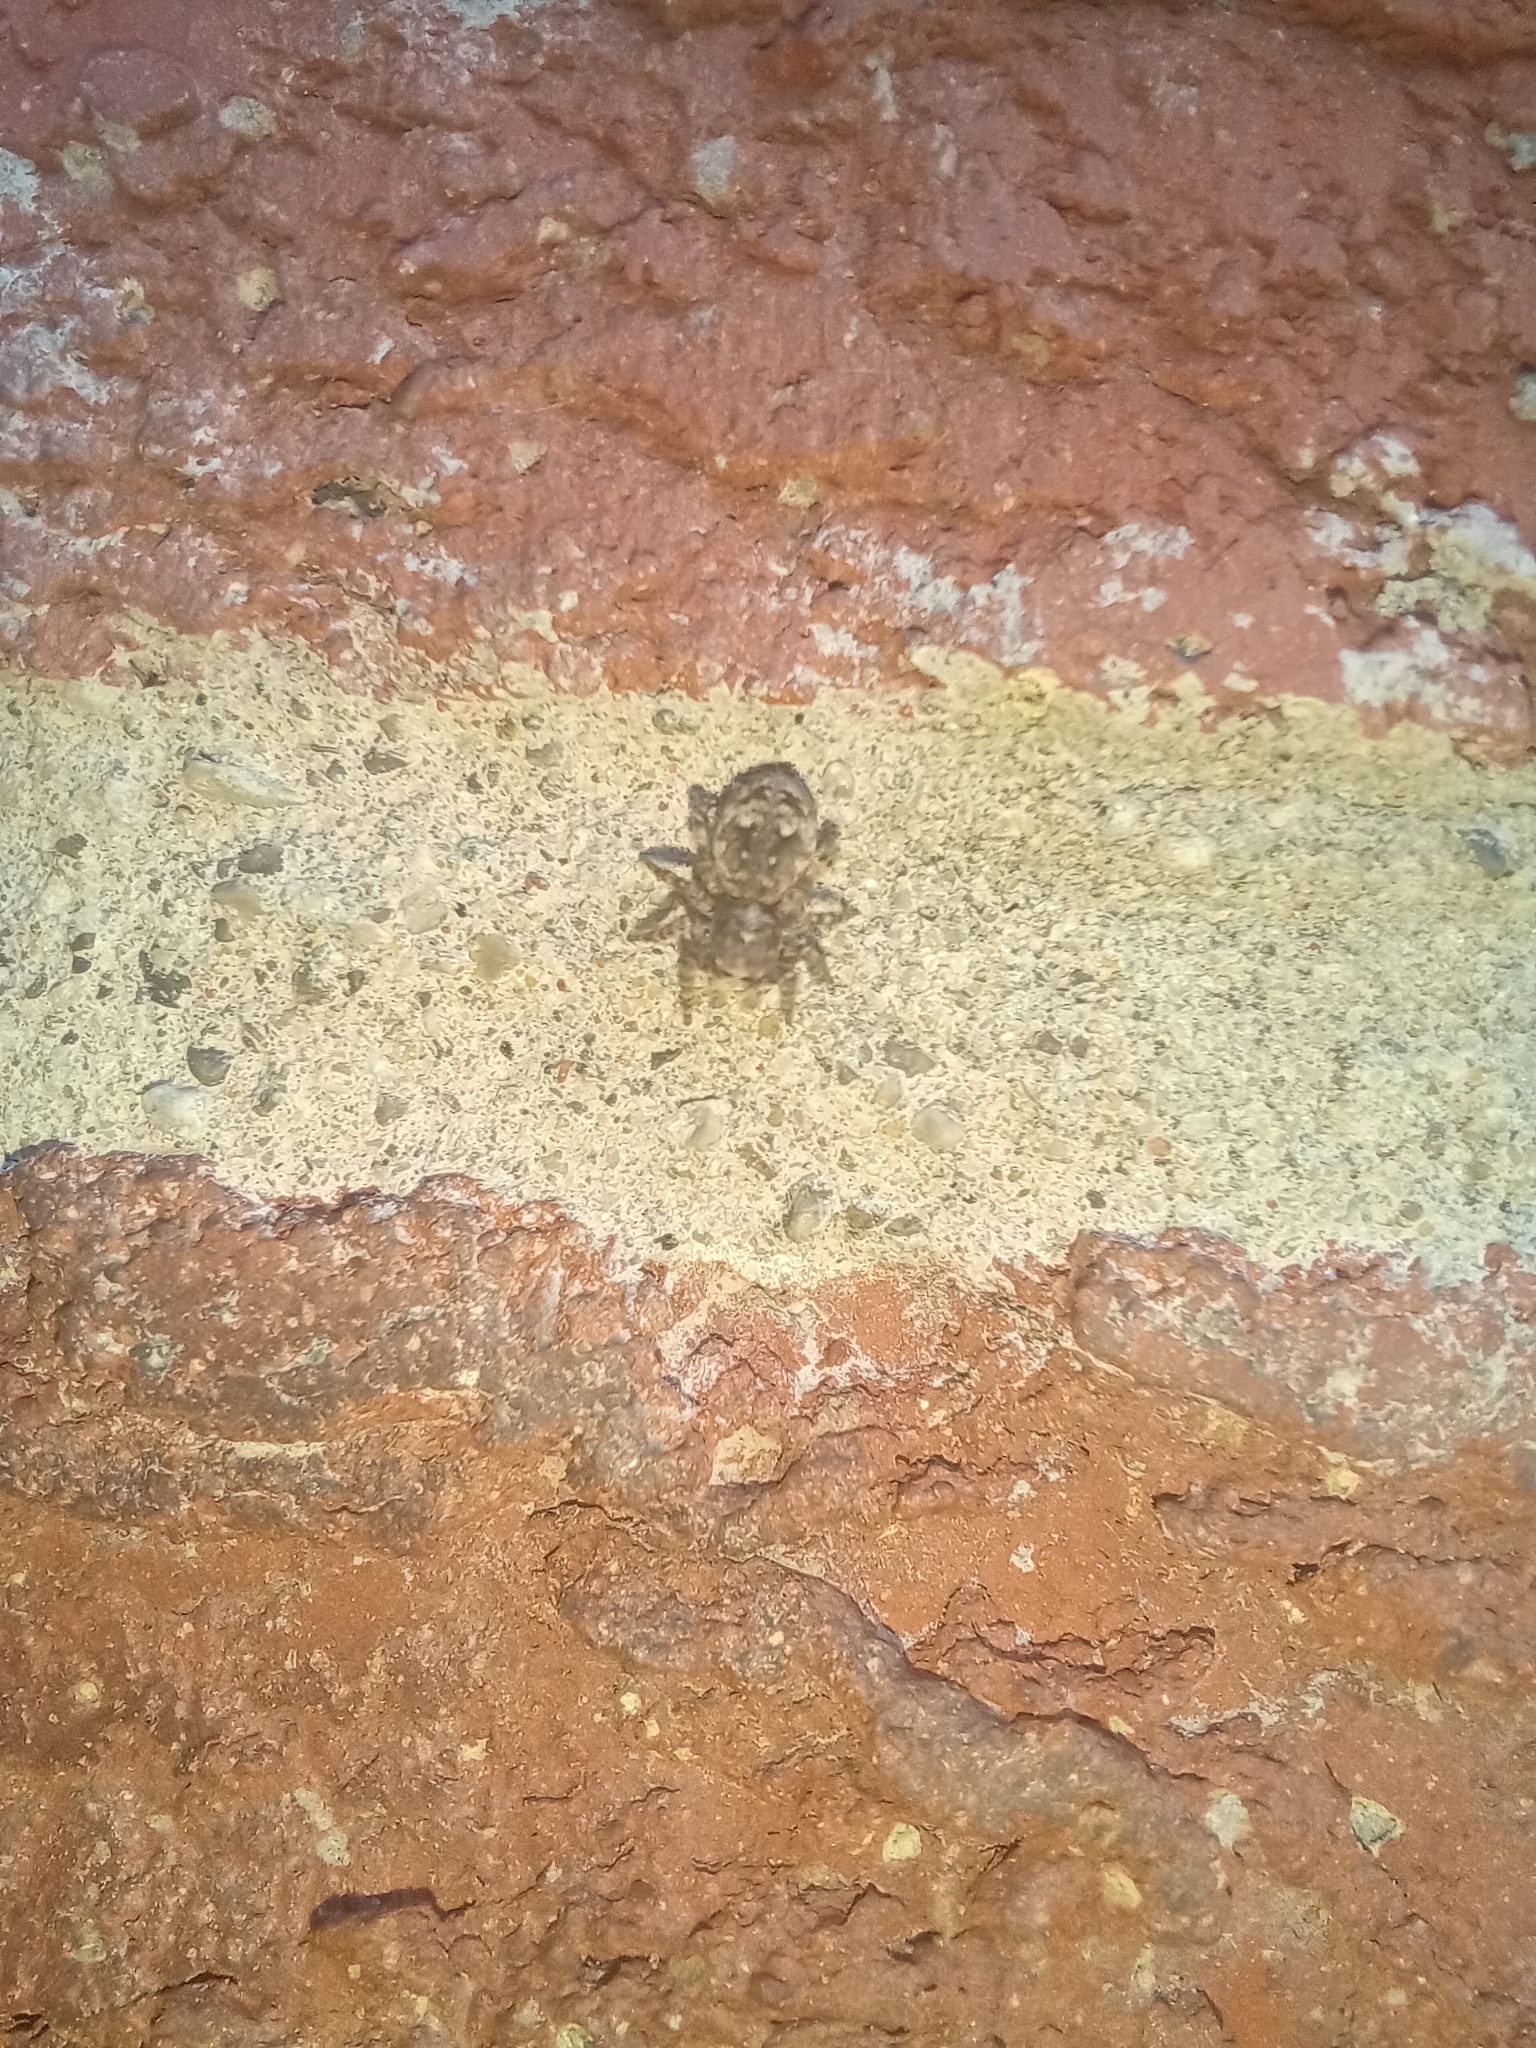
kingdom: Animalia
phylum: Arthropoda
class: Arachnida
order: Araneae
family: Salticidae
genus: Attulus
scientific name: Attulus fasciger
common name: Asiatic wall jumping spider
